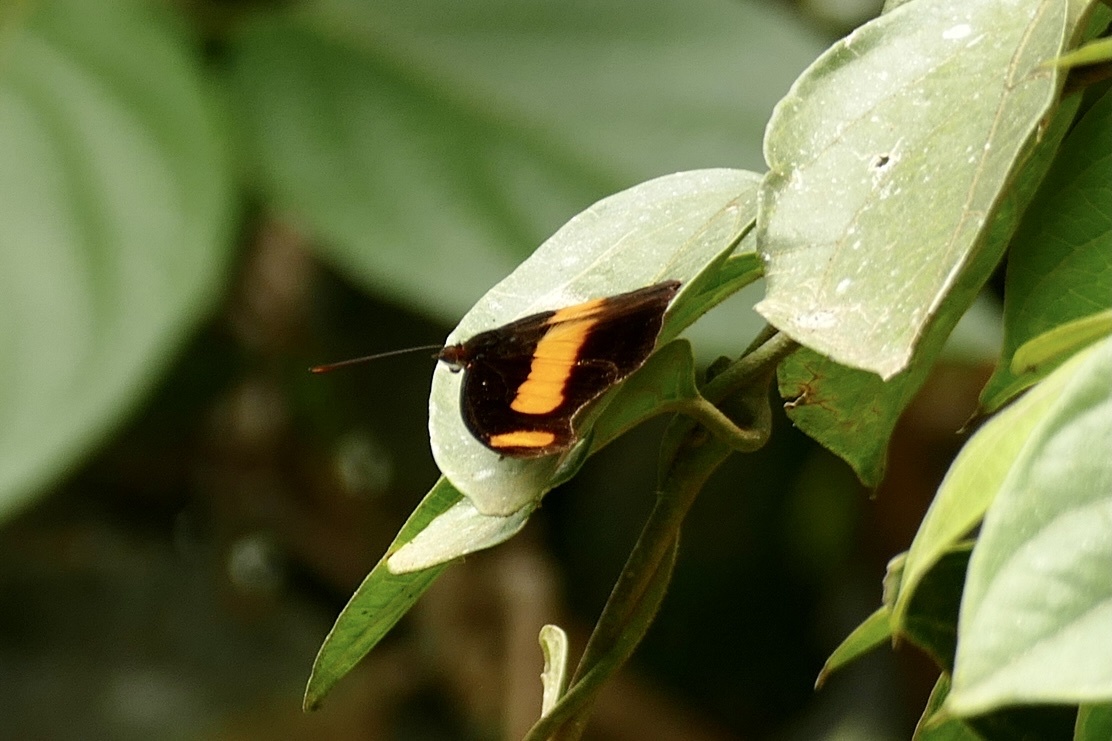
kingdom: Animalia
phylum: Arthropoda
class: Insecta
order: Lepidoptera
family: Nymphalidae
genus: Catonephele
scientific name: Catonephele chromis
